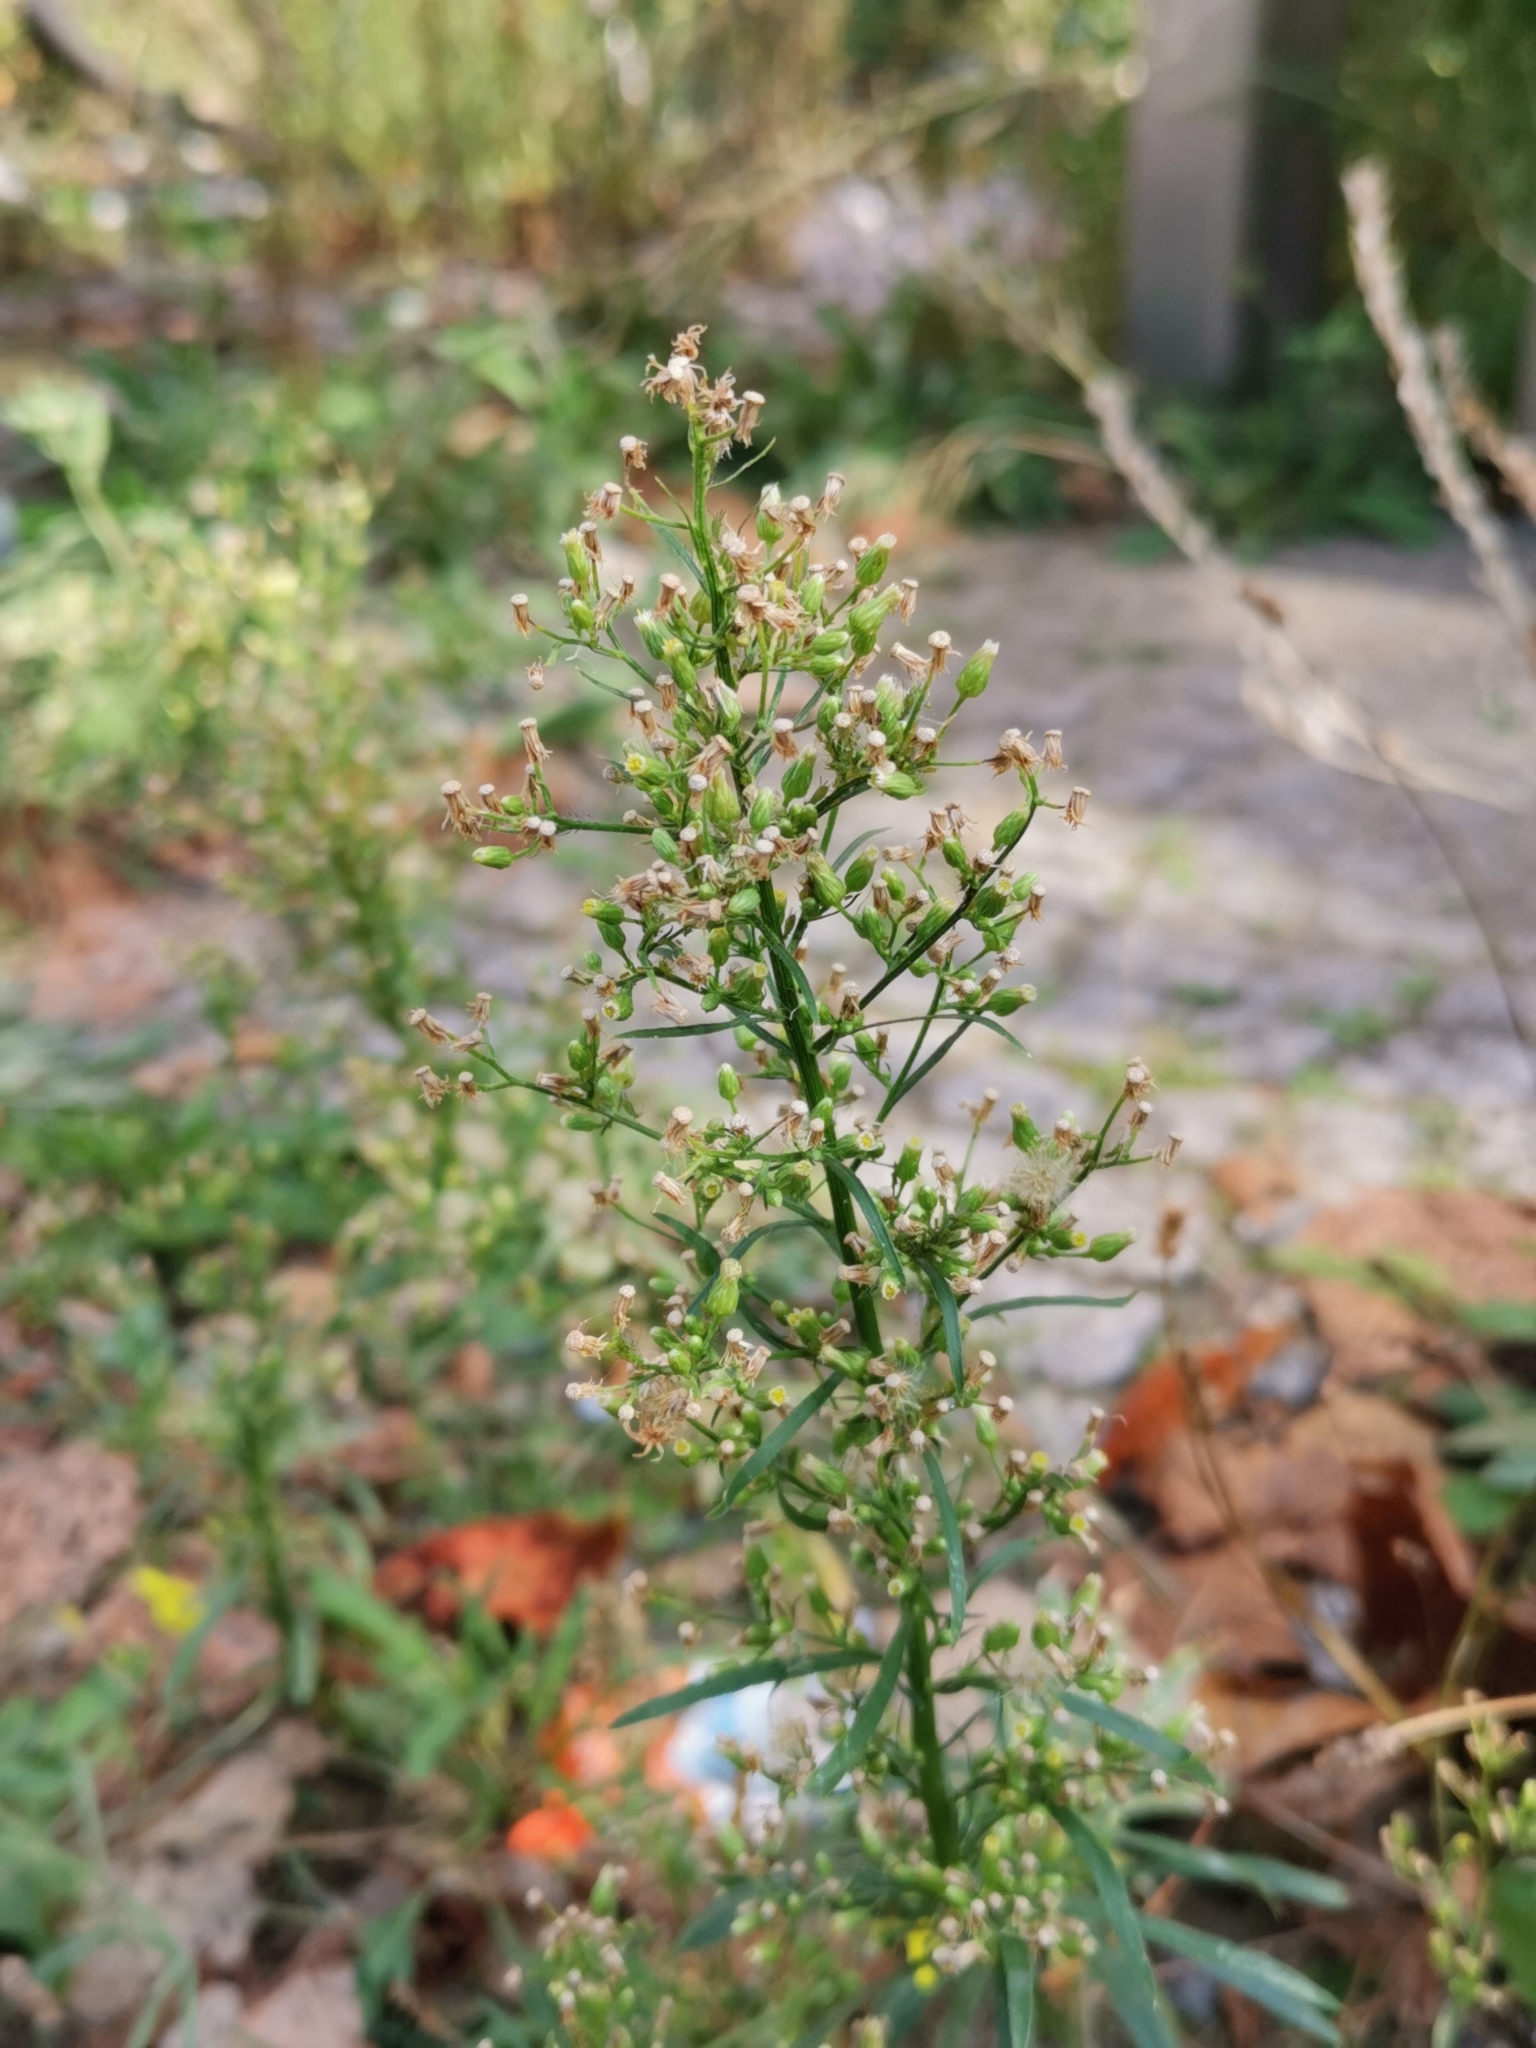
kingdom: Plantae
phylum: Tracheophyta
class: Magnoliopsida
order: Asterales
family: Asteraceae
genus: Erigeron
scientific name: Erigeron canadensis
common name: Canadian fleabane
